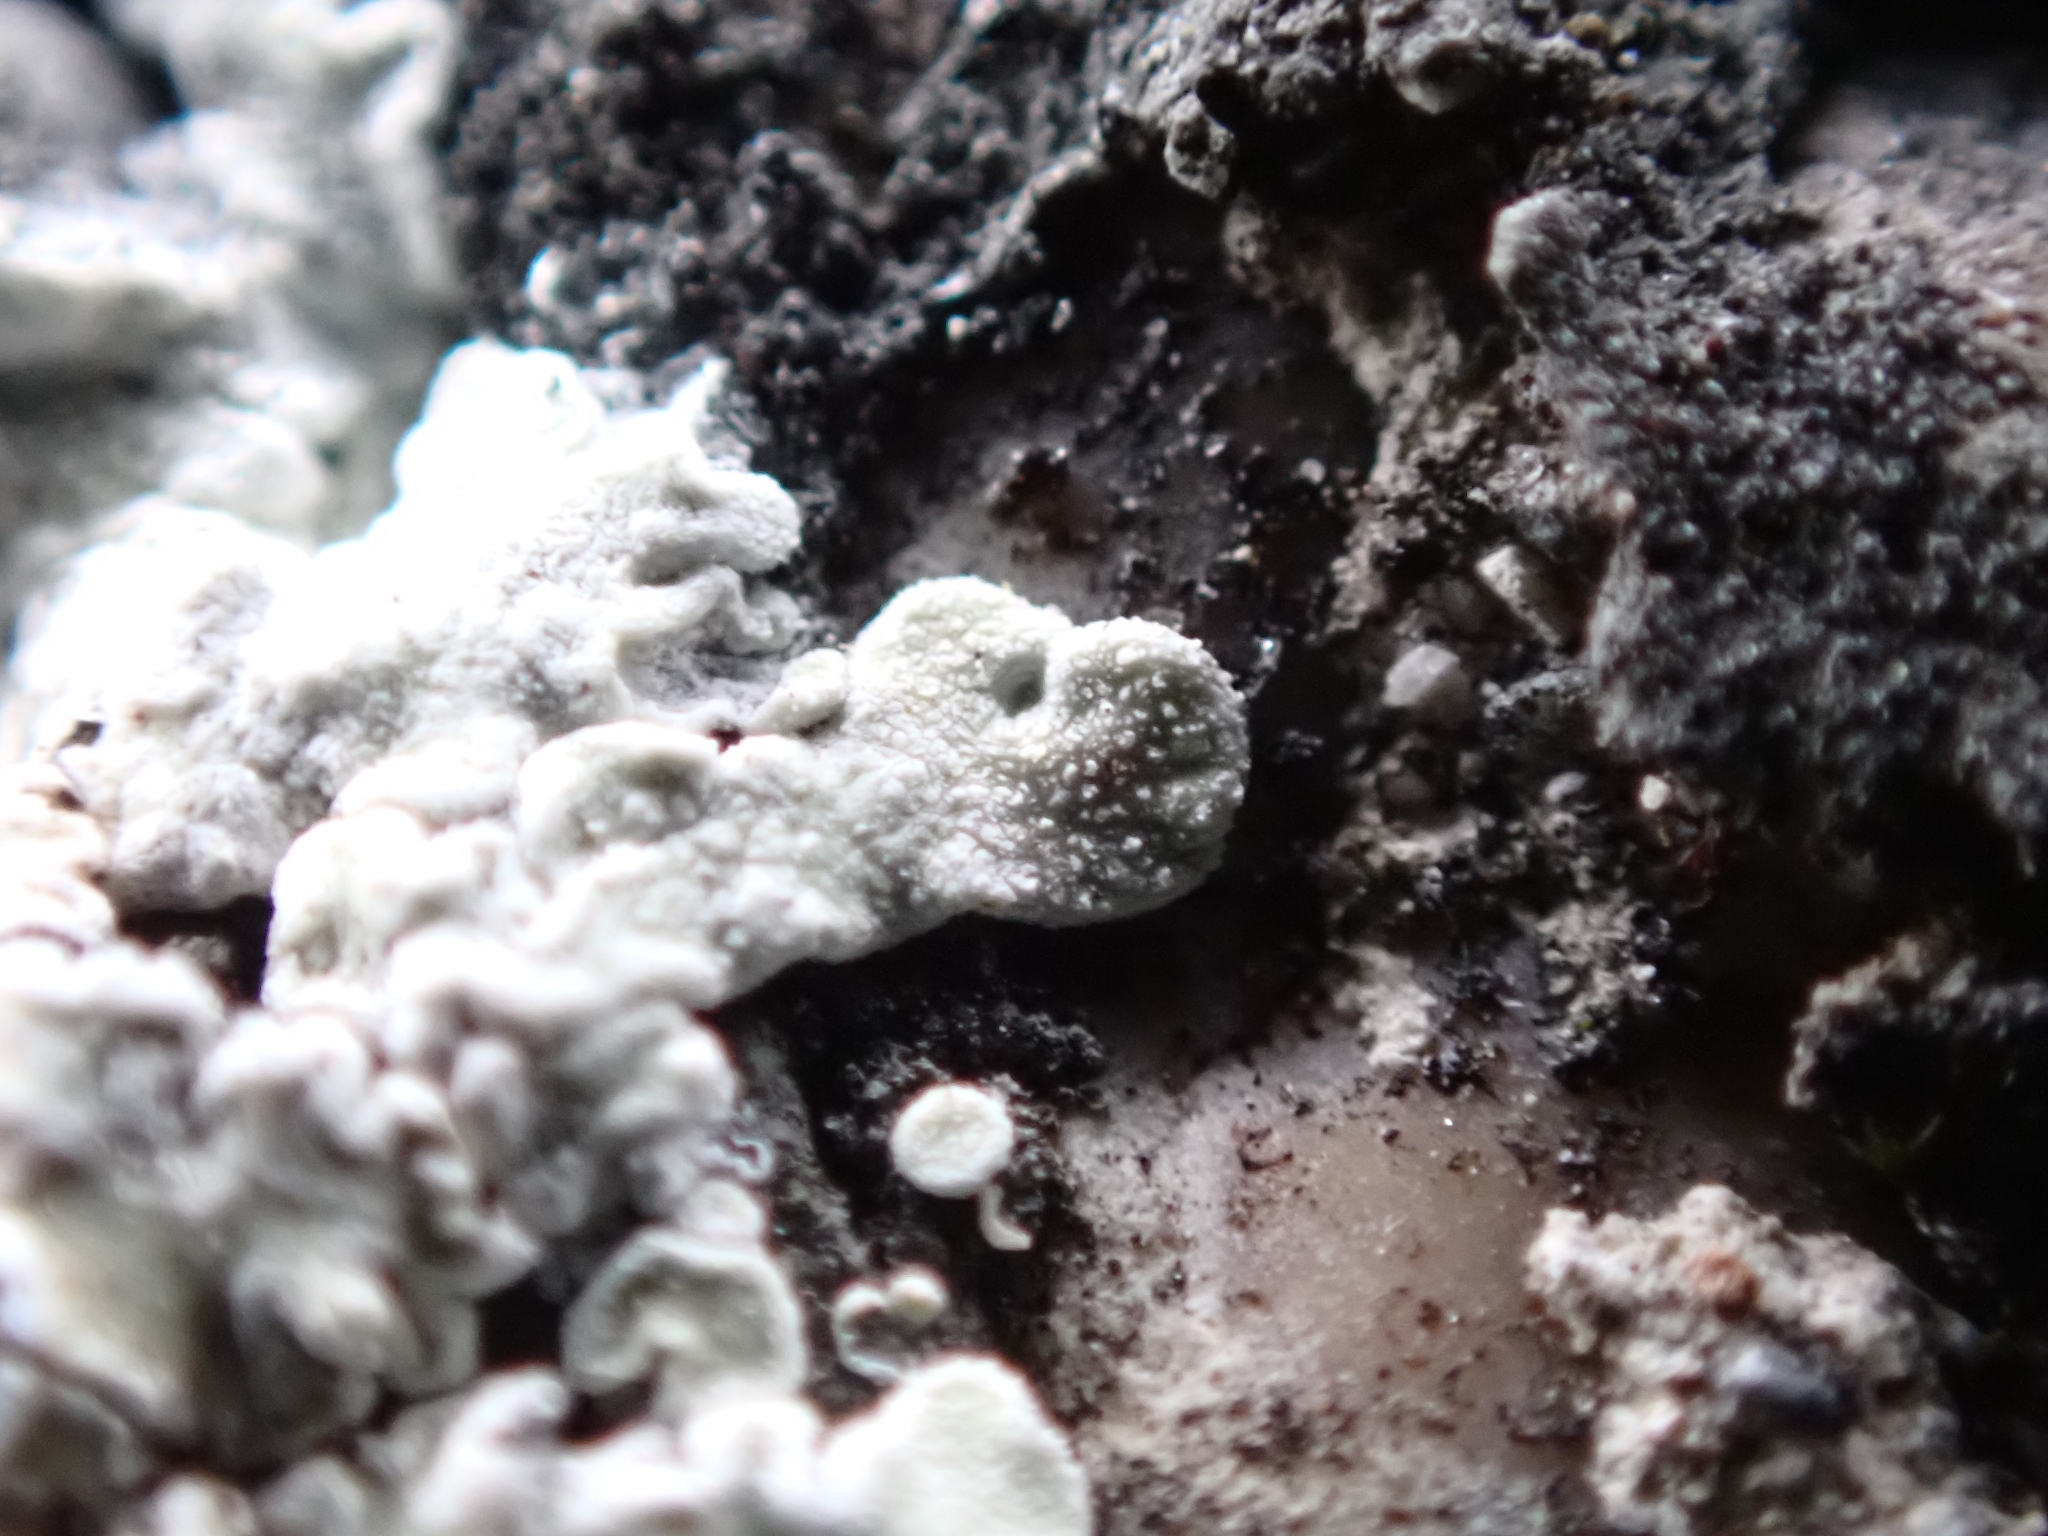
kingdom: Fungi
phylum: Ascomycota
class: Lecanoromycetes
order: Lecanorales
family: Lecanoraceae
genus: Protoparmeliopsis
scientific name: Protoparmeliopsis muralis
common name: Stonewall rim lichen
